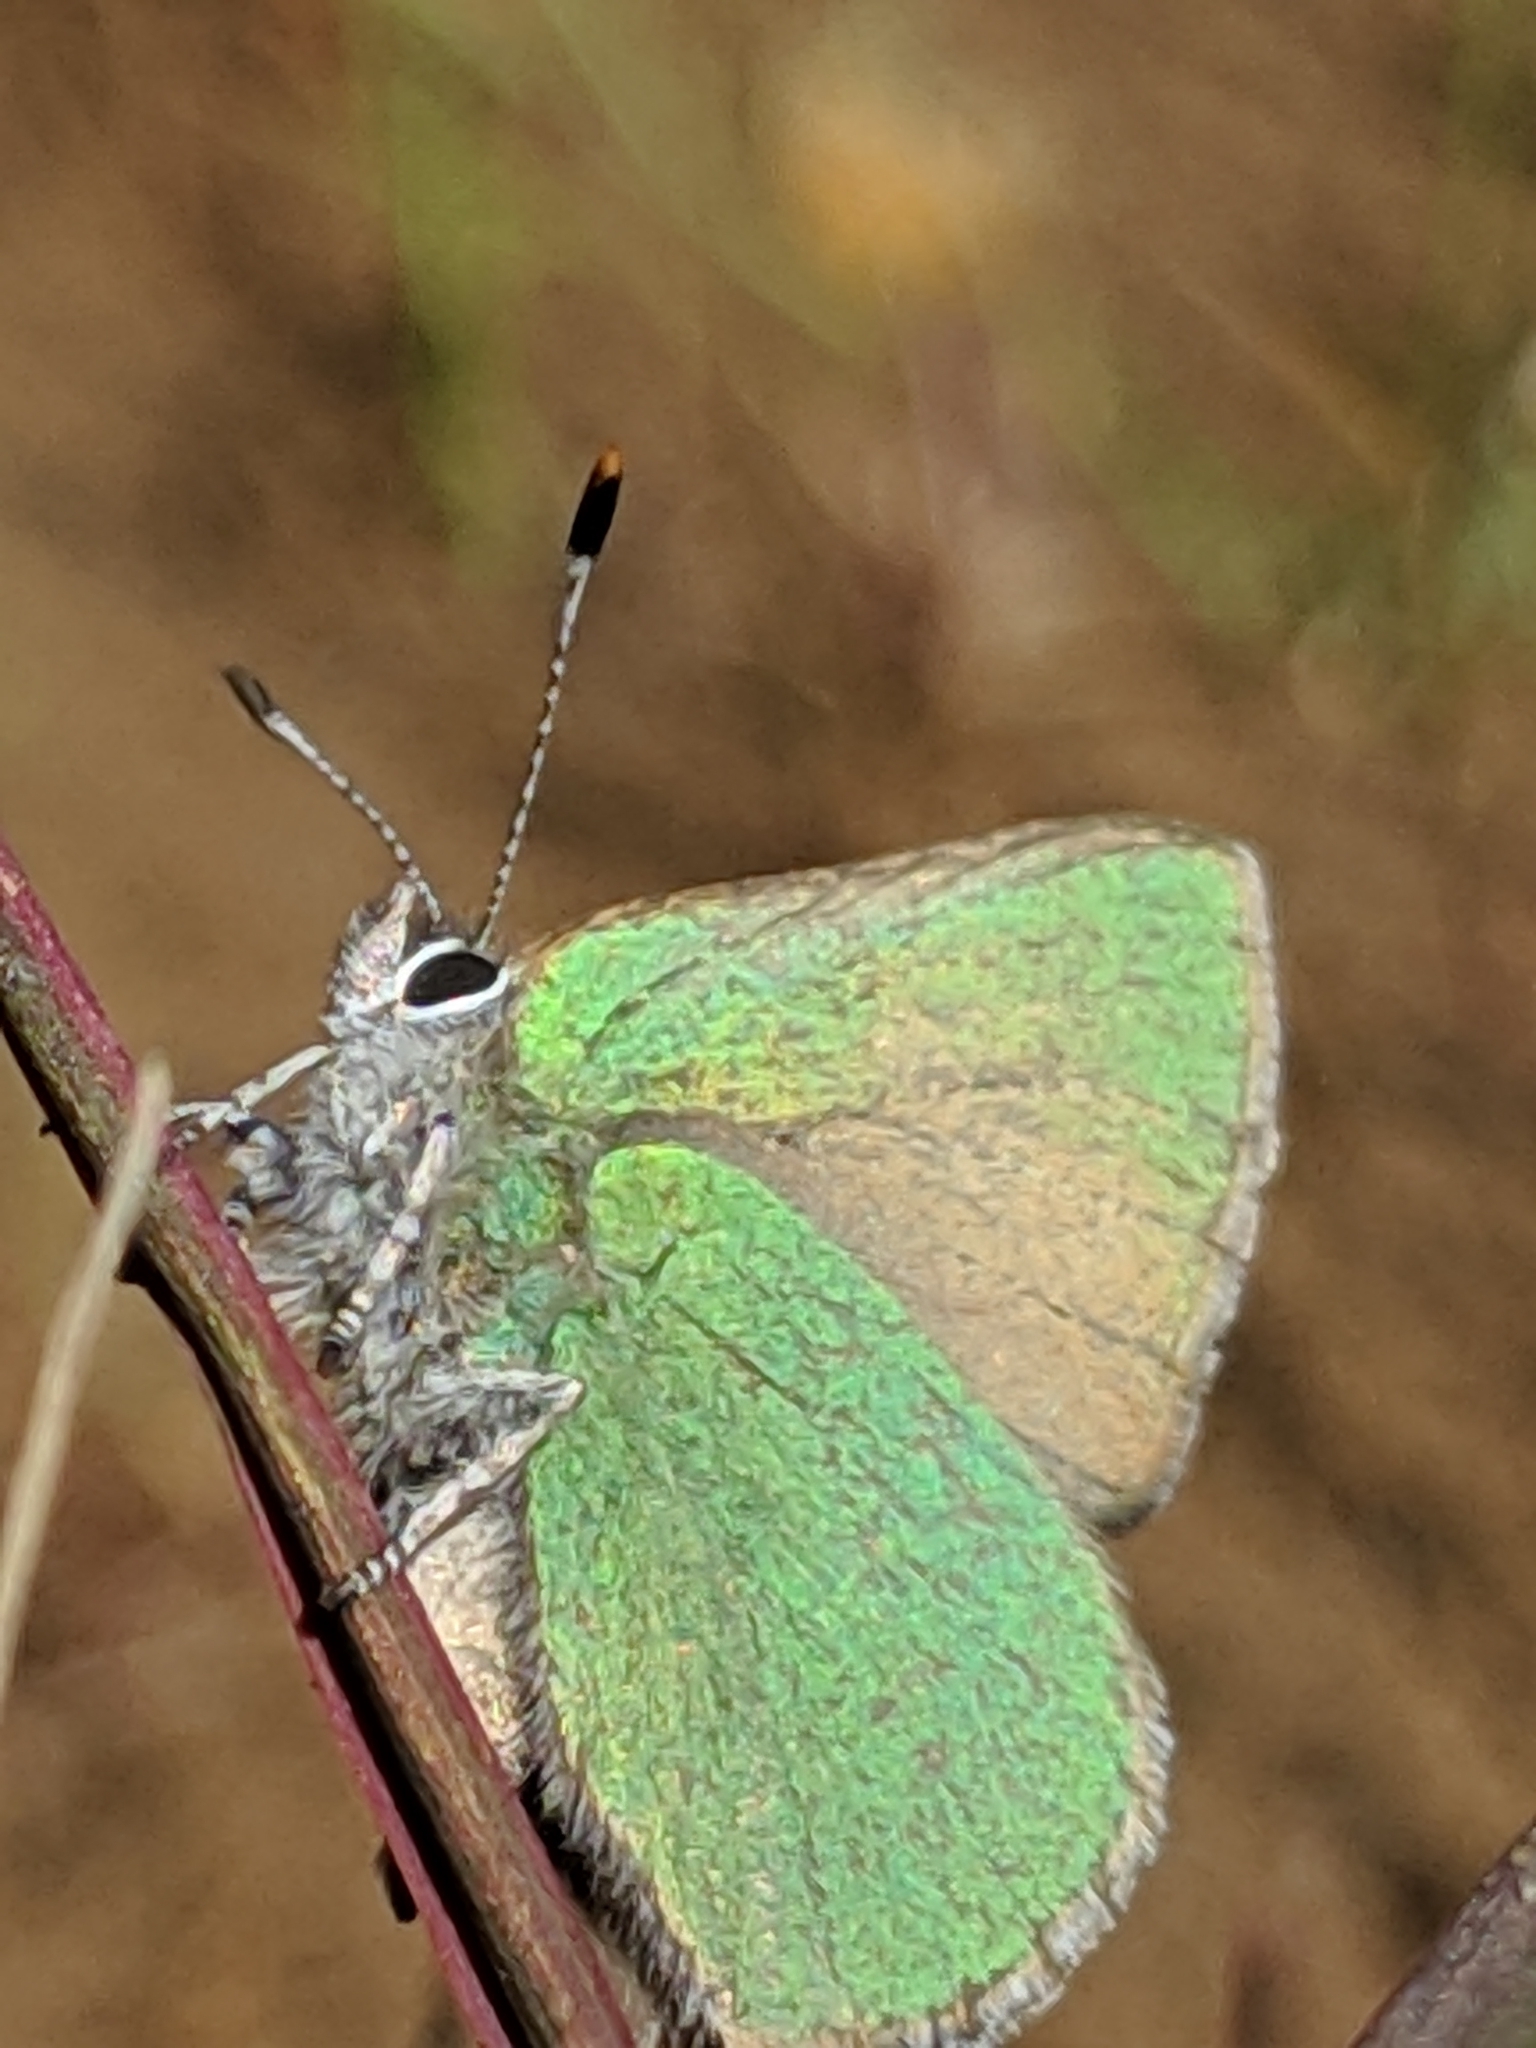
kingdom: Animalia
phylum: Arthropoda
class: Insecta
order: Lepidoptera
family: Lycaenidae
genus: Callophrys
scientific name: Callophrys dumetorum
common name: Bramble hairstreak
